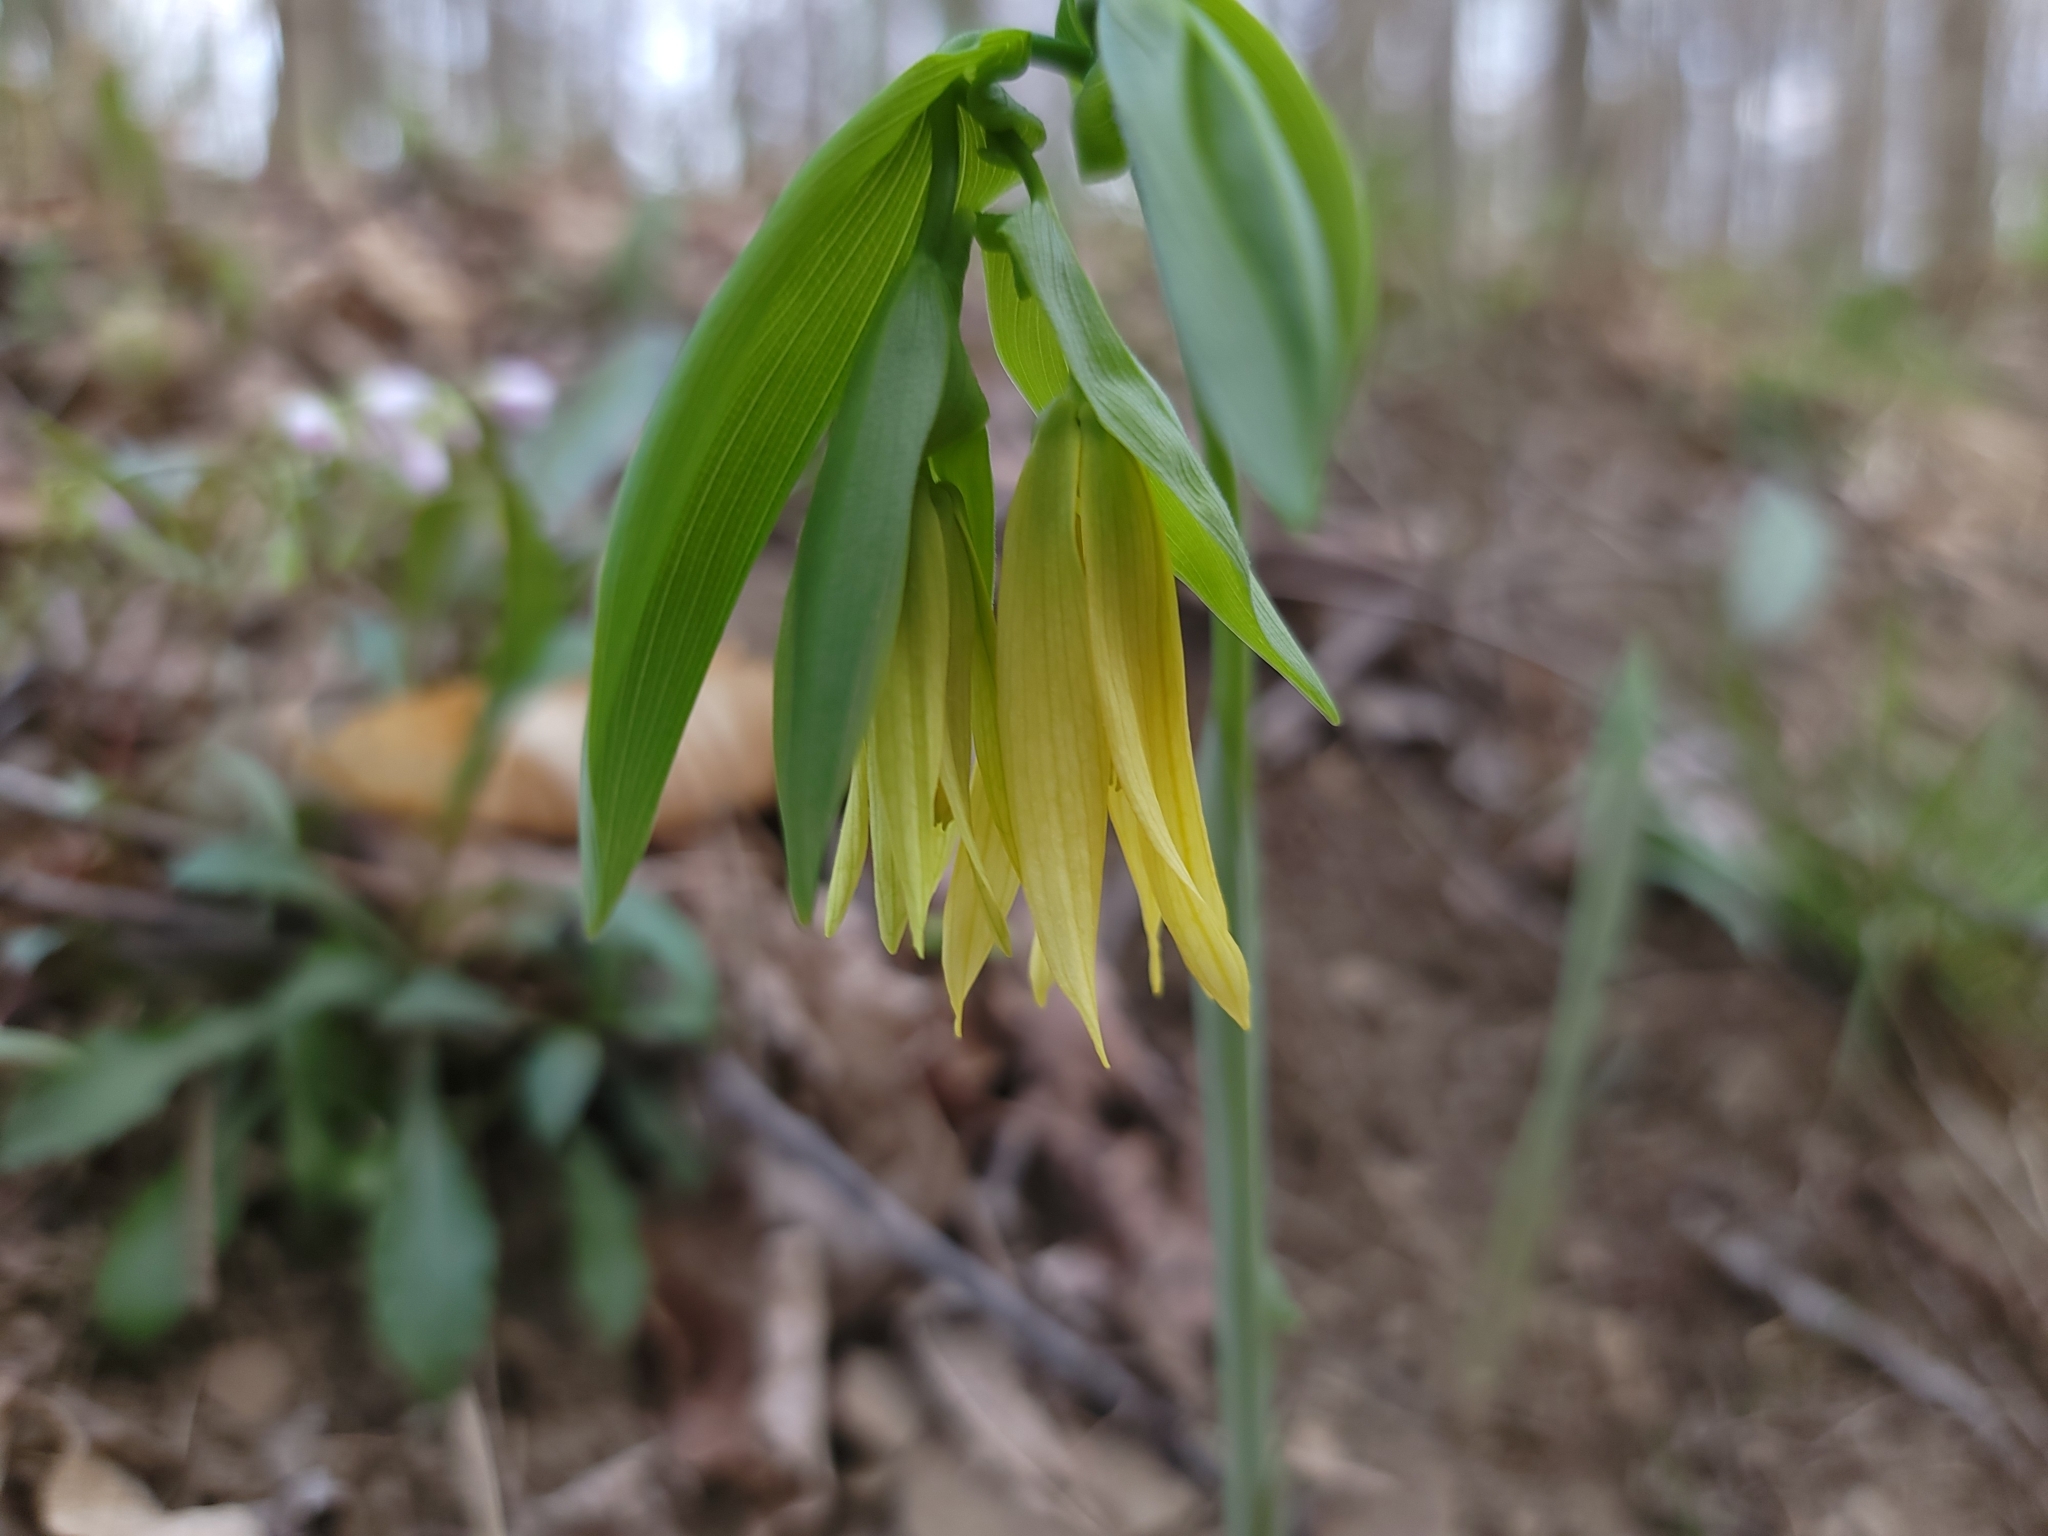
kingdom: Plantae
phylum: Tracheophyta
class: Liliopsida
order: Liliales
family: Colchicaceae
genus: Uvularia
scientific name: Uvularia grandiflora
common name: Bellwort
